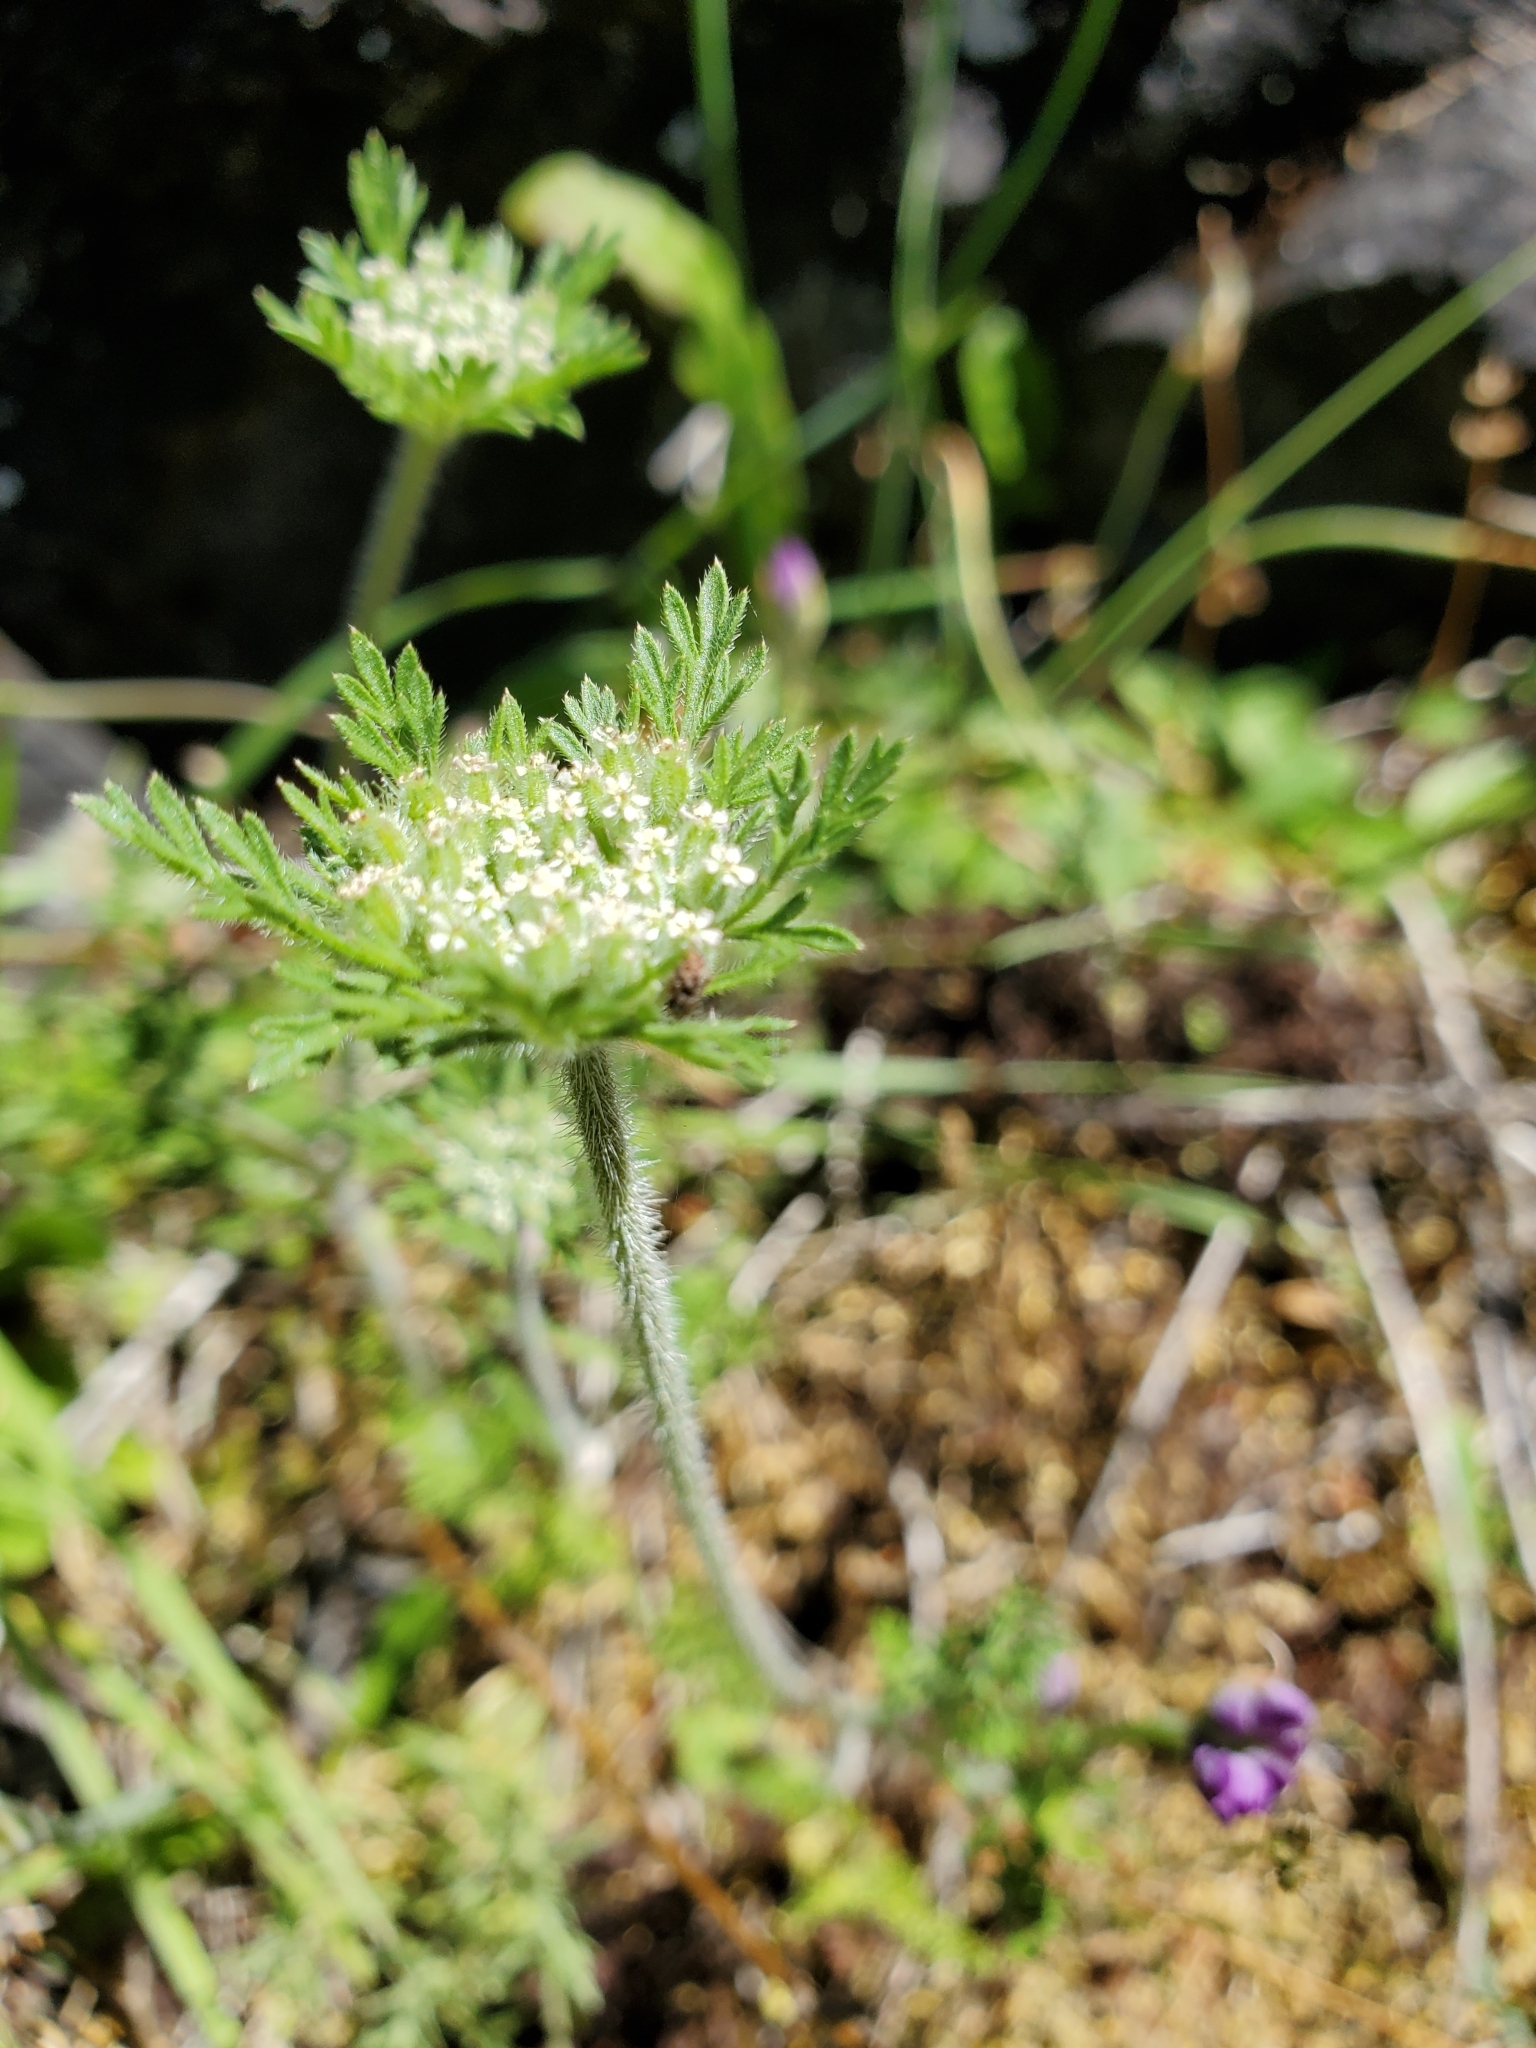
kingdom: Plantae
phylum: Tracheophyta
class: Magnoliopsida
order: Apiales
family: Apiaceae
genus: Daucus
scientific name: Daucus pusillus
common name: Southwest wild carrot
